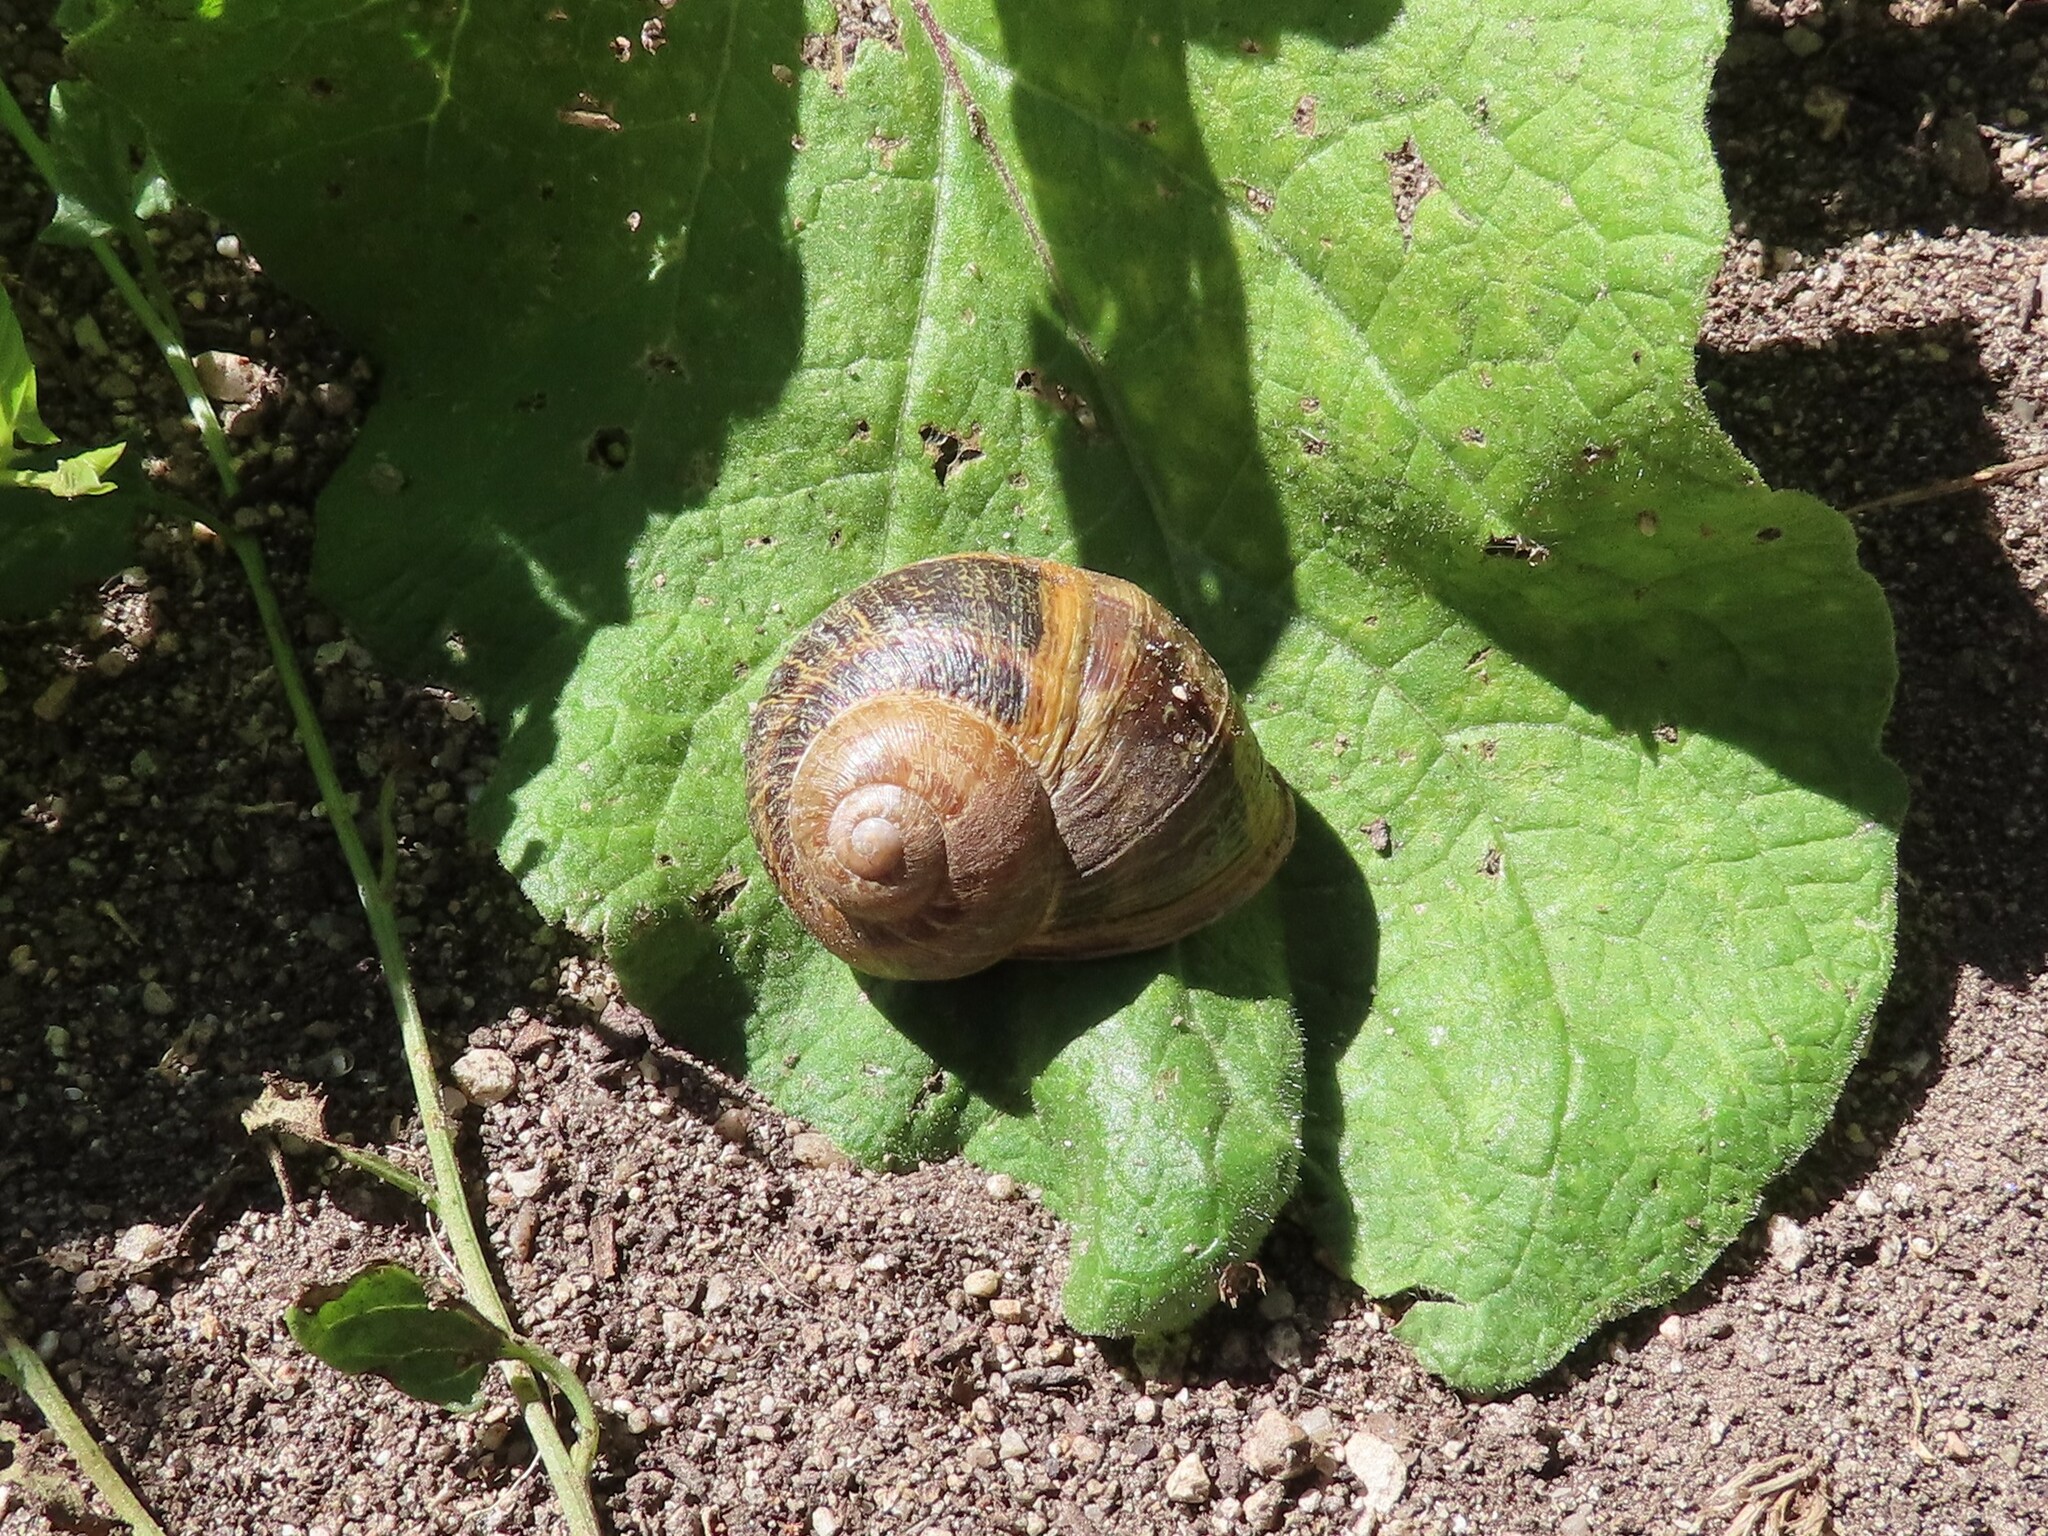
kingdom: Animalia
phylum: Mollusca
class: Gastropoda
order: Stylommatophora
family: Helicidae
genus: Cornu
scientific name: Cornu aspersum
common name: Brown garden snail
